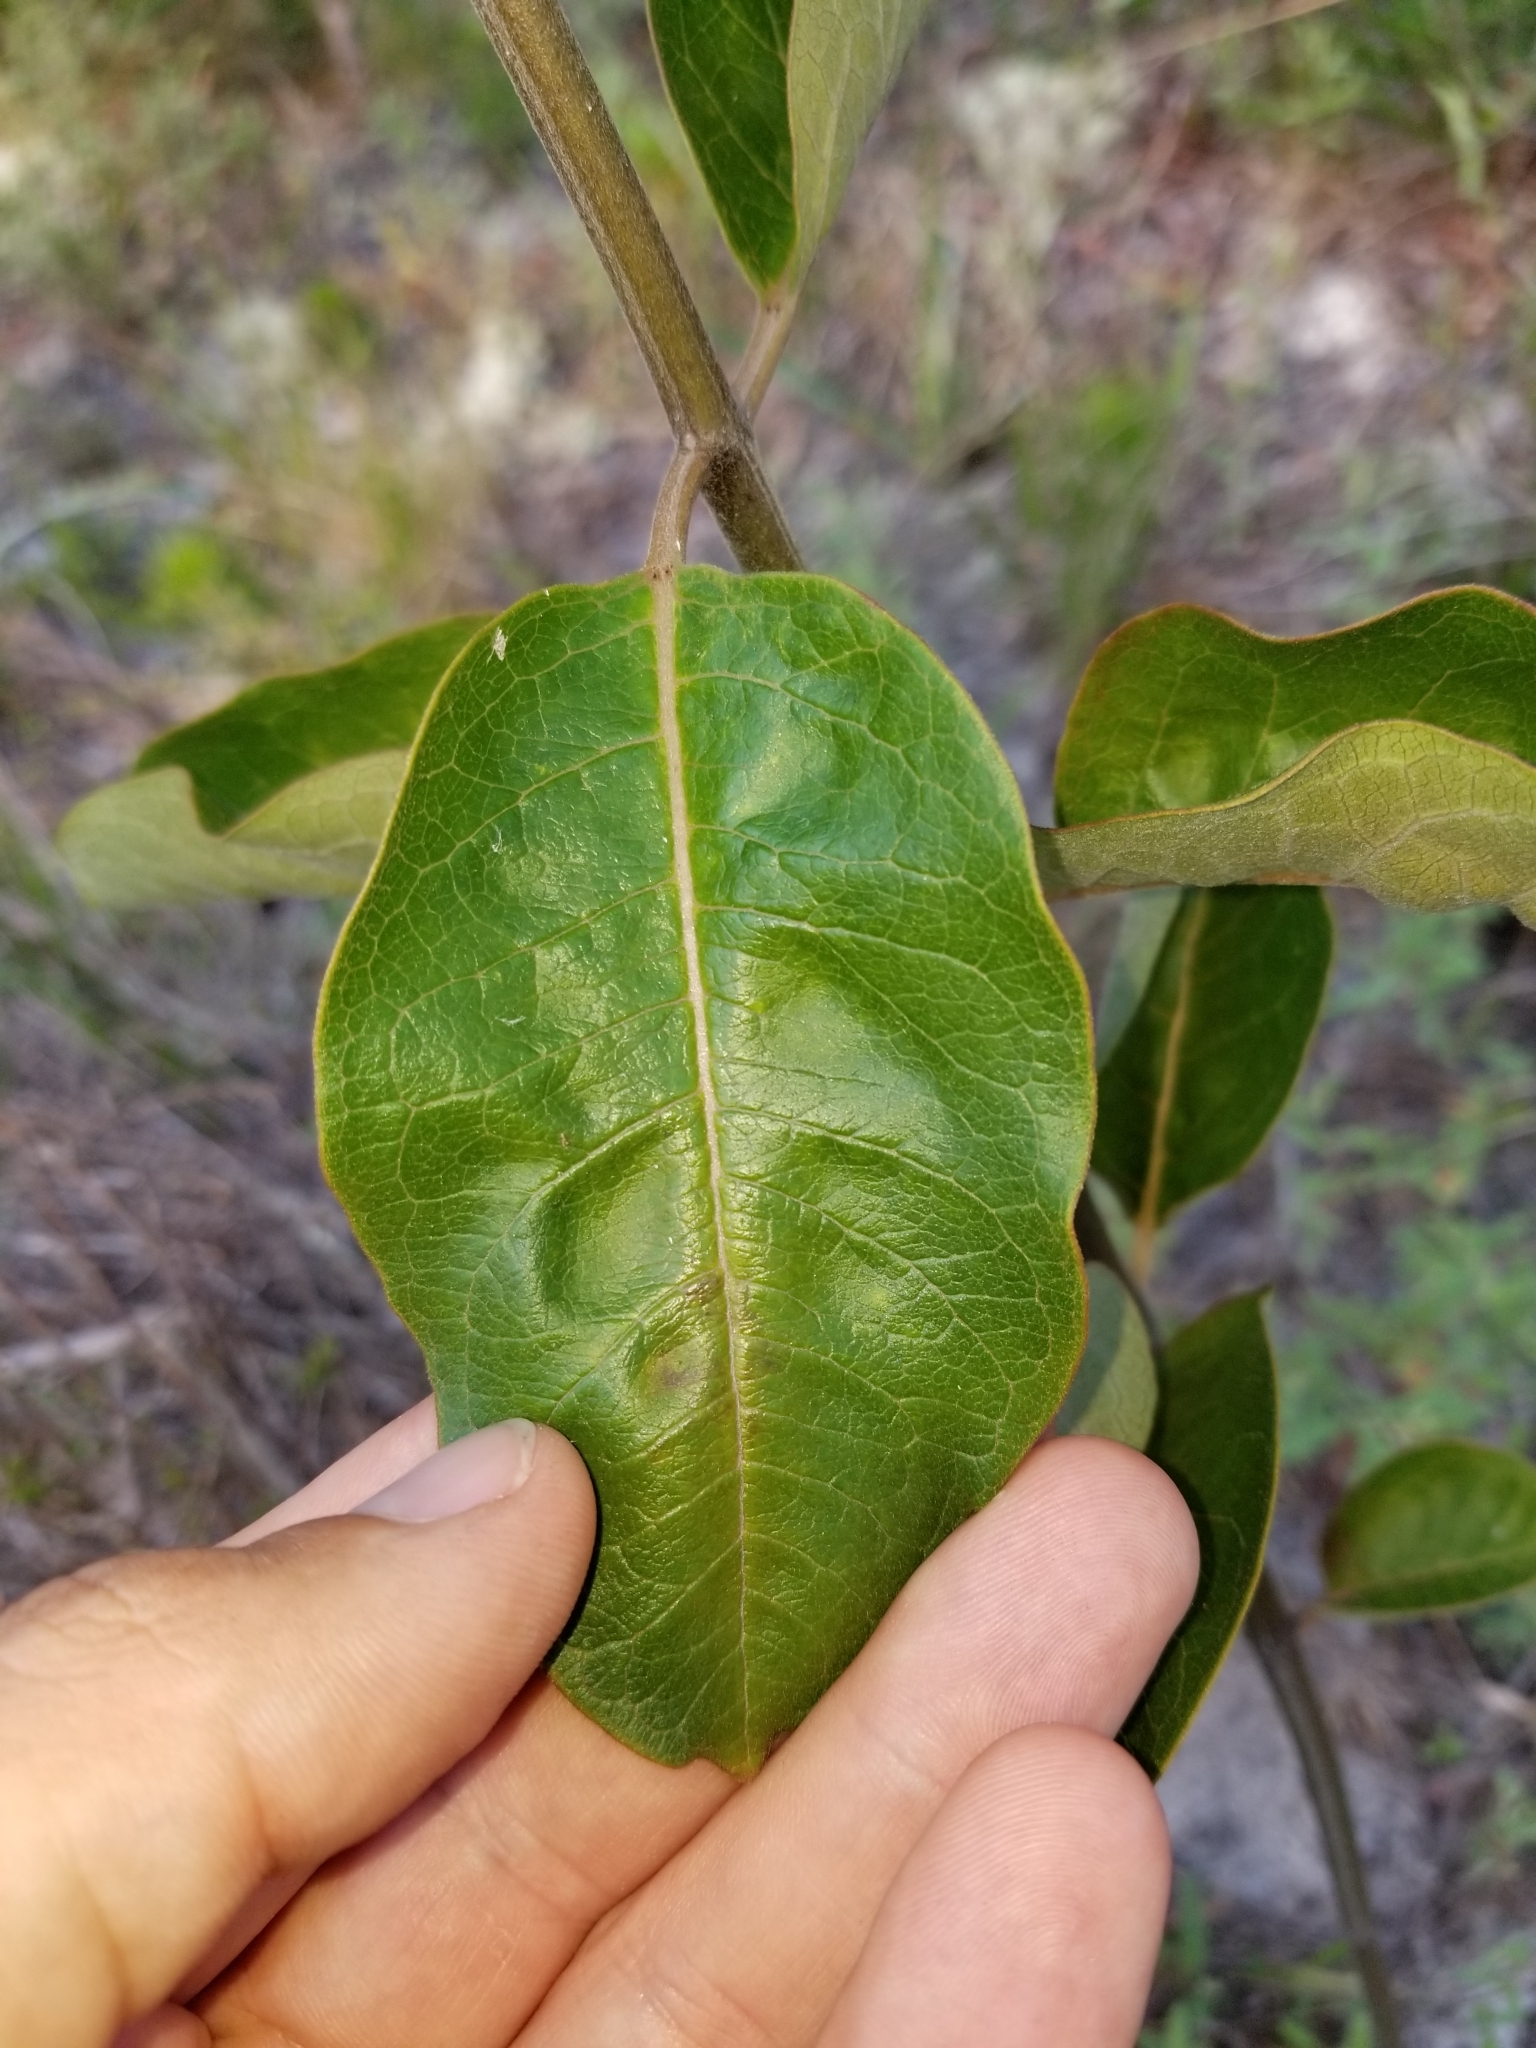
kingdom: Plantae
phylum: Tracheophyta
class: Magnoliopsida
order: Gentianales
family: Apocynaceae
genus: Asclepias
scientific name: Asclepias tomentosa
